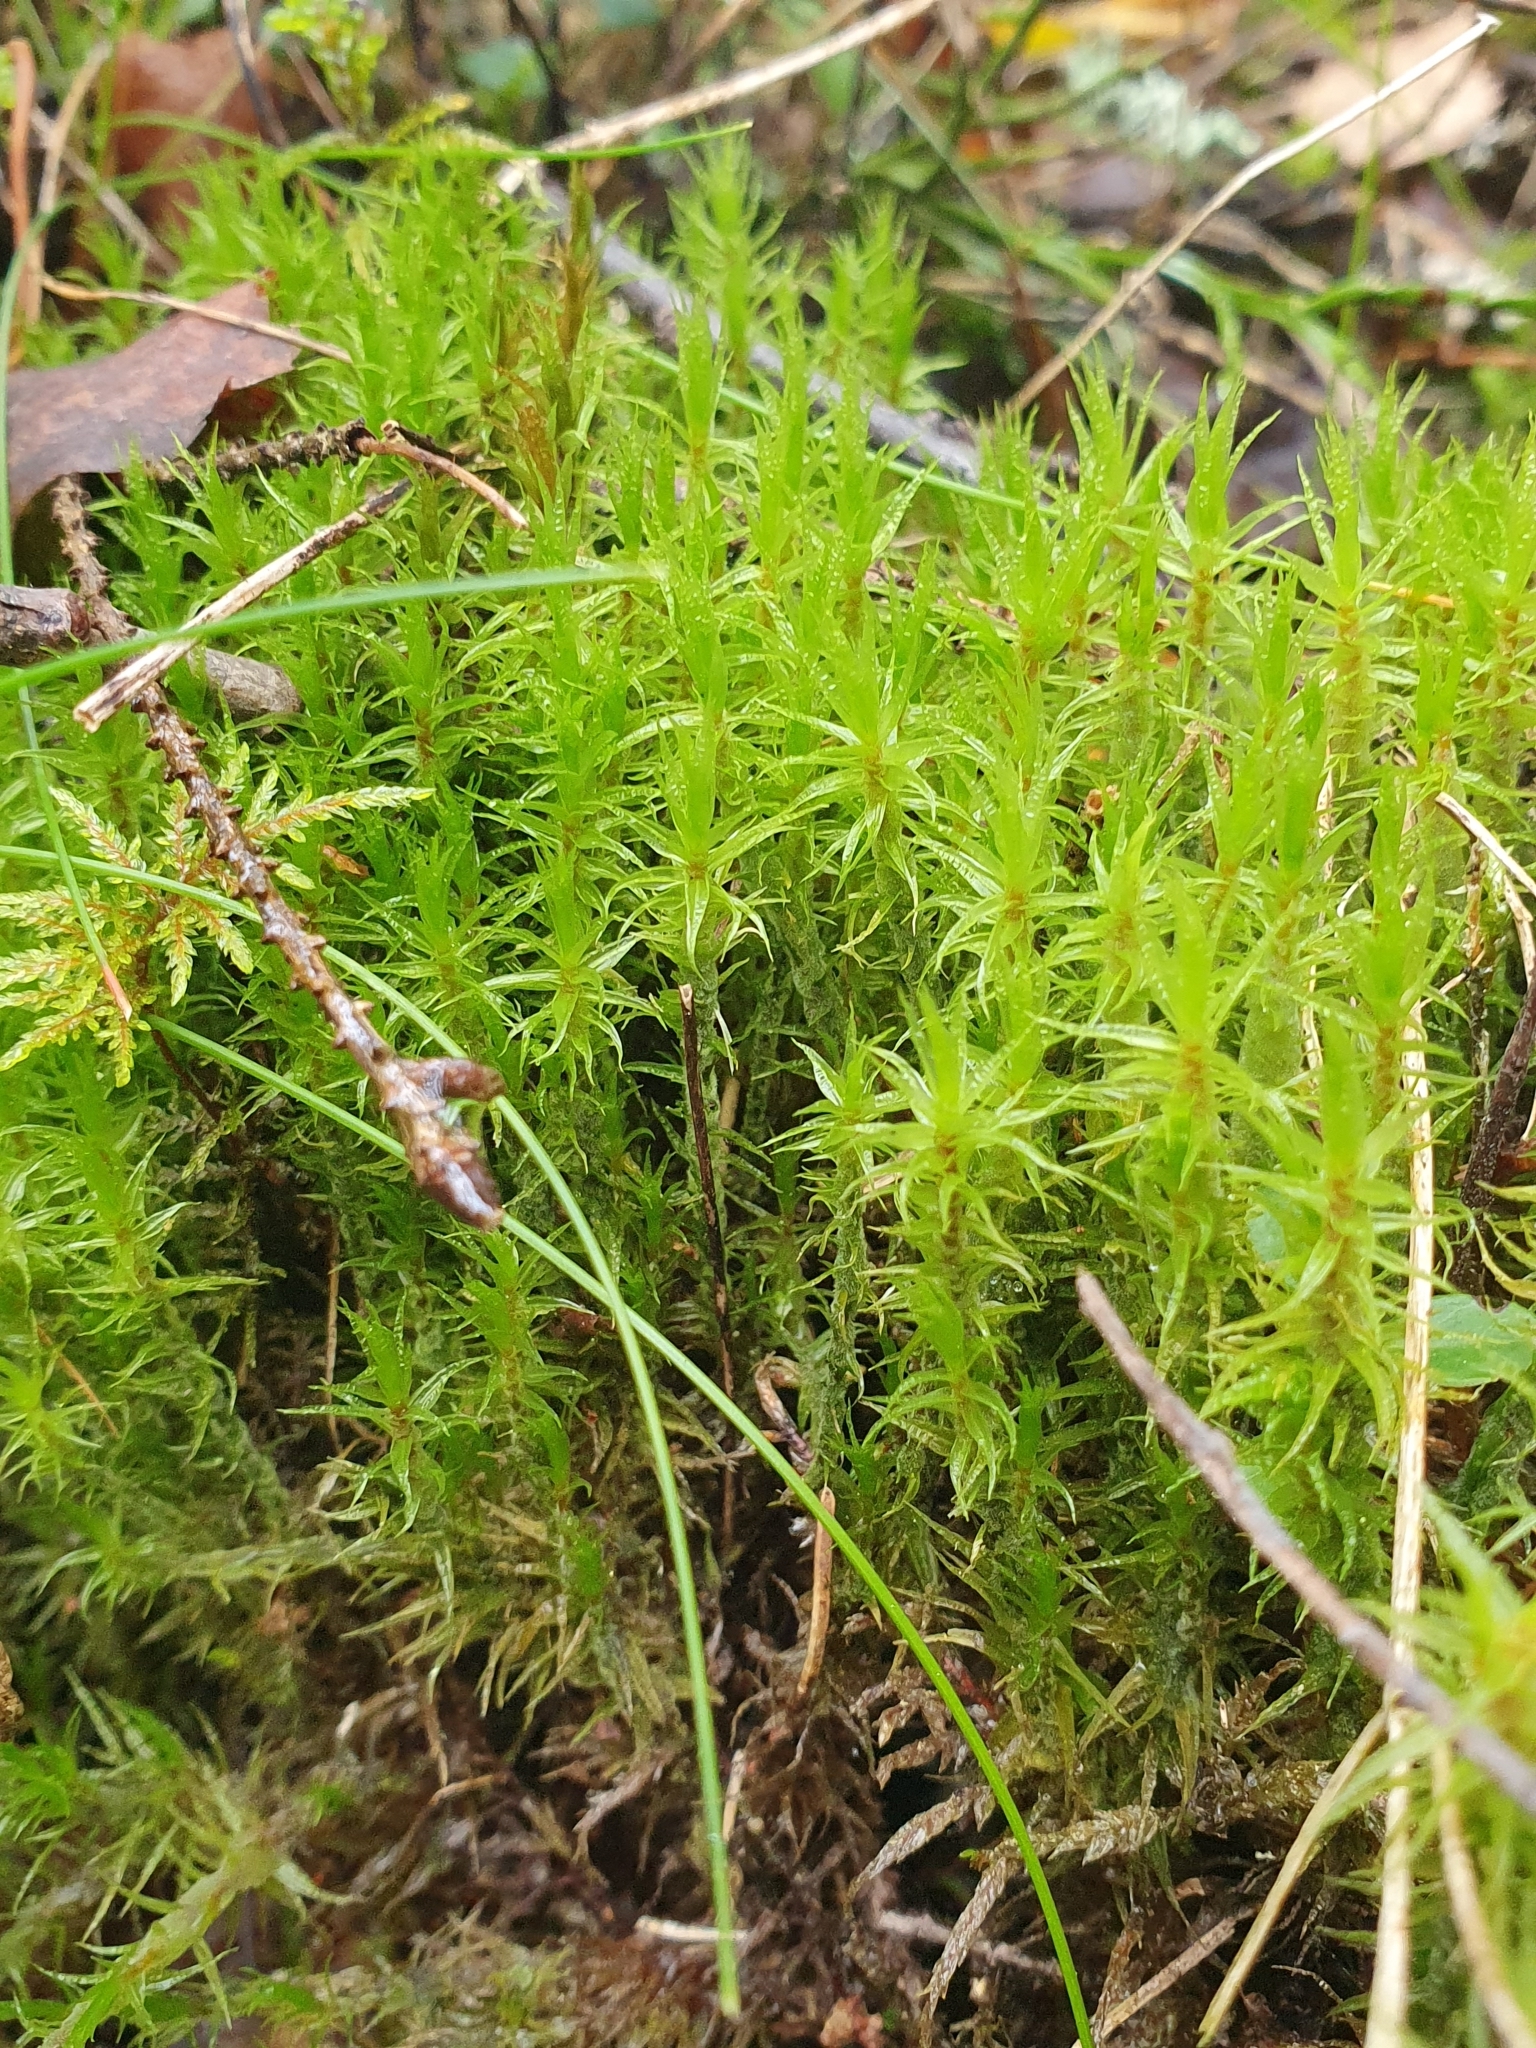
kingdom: Plantae
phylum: Bryophyta
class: Bryopsida
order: Dicranales
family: Dicranaceae
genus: Dicranum
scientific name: Dicranum polysetum
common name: Rugose fork-moss
